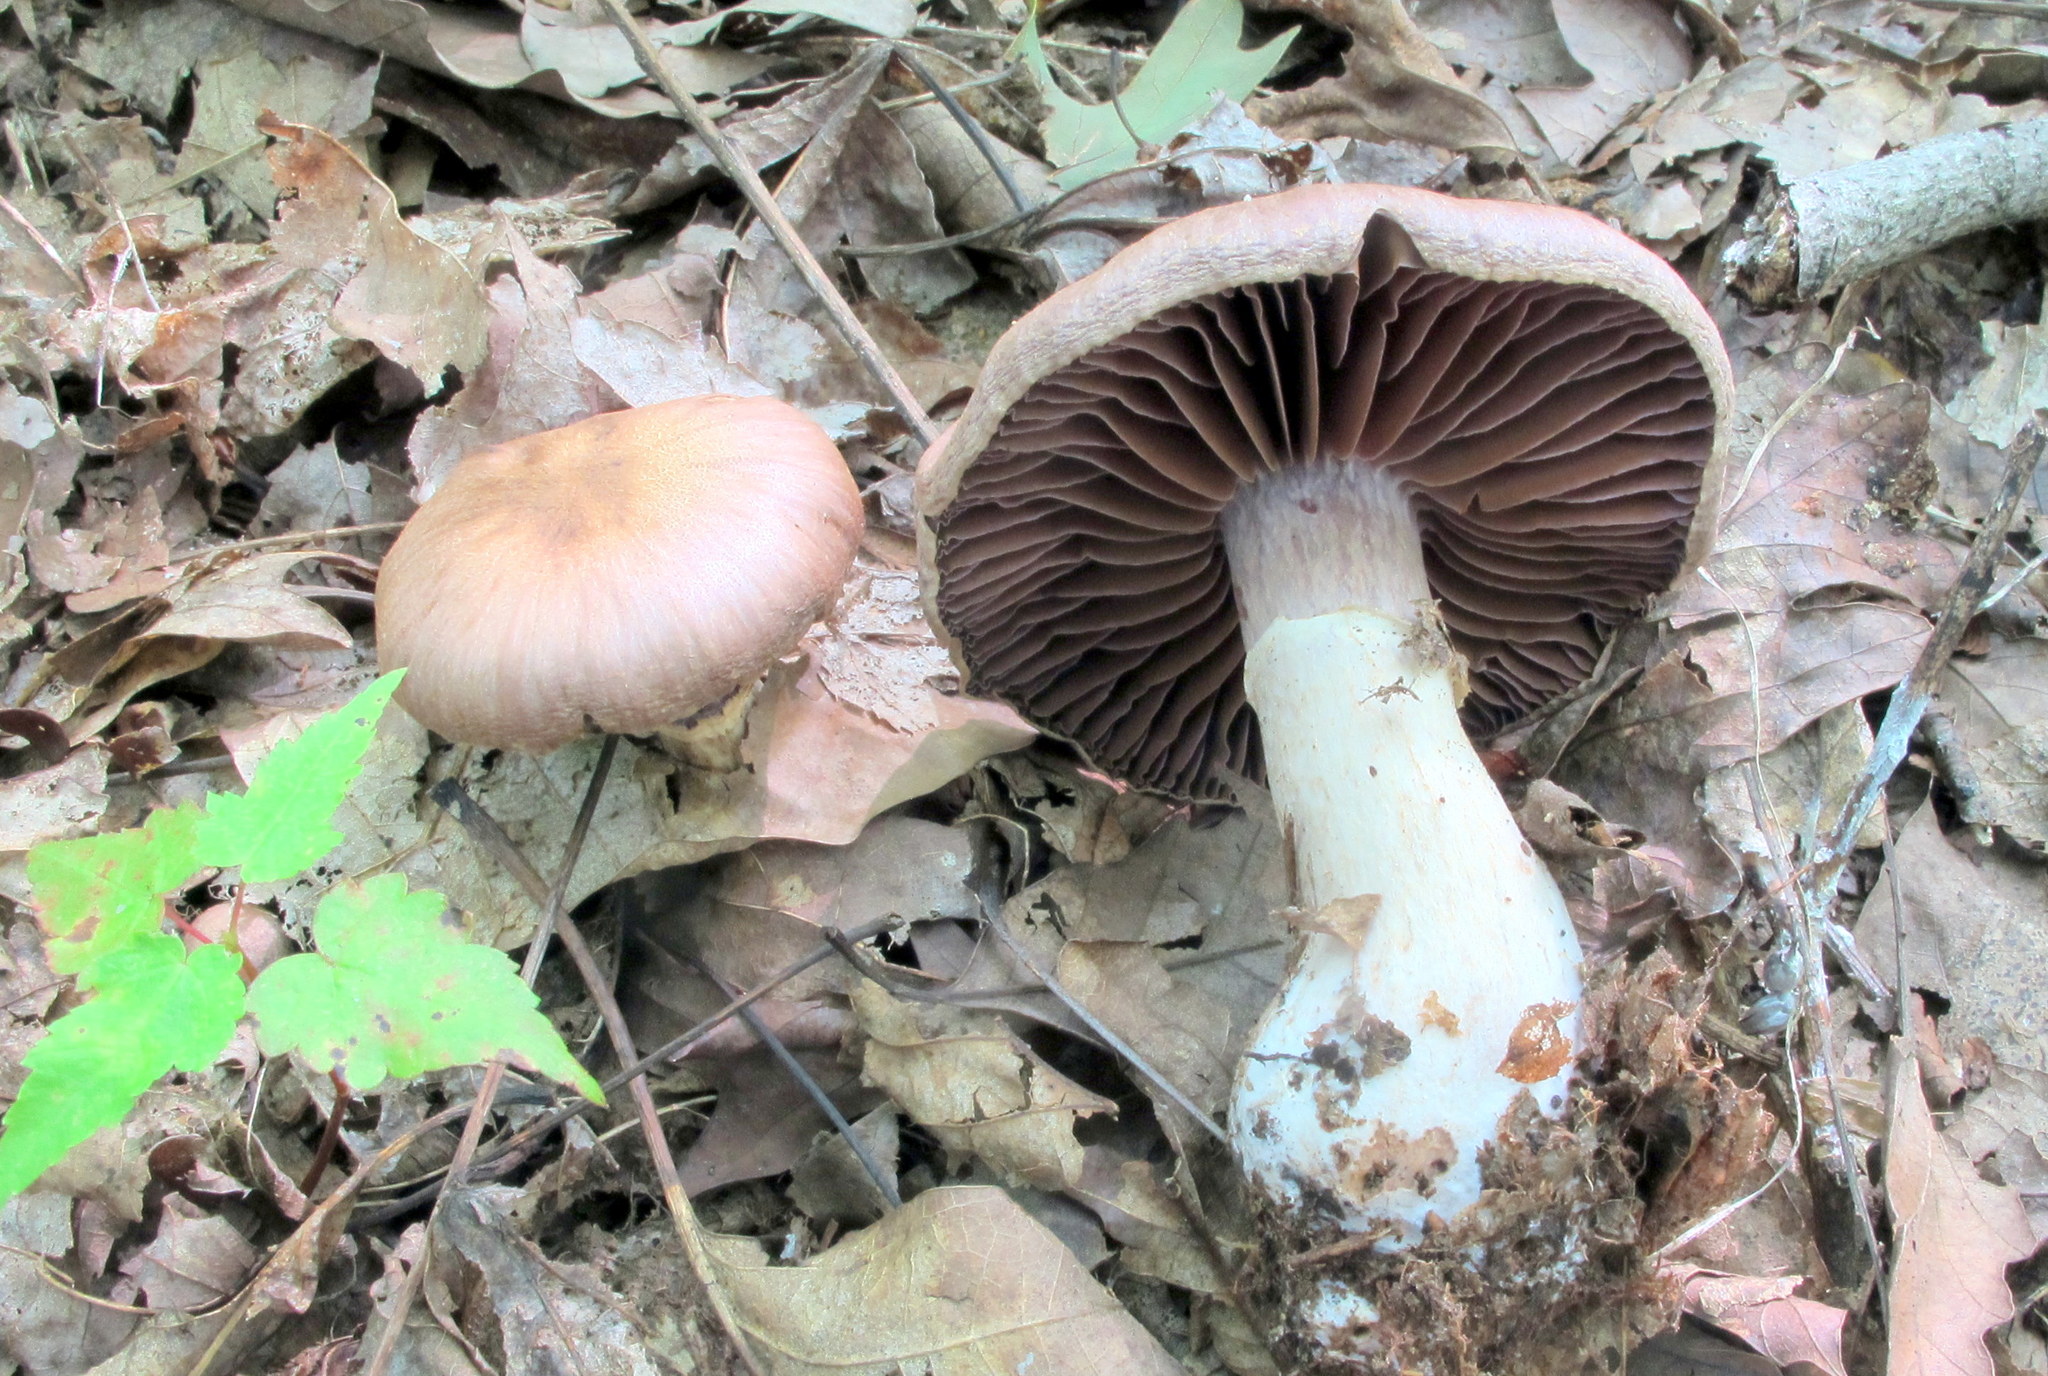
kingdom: Fungi
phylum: Basidiomycota
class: Agaricomycetes
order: Agaricales
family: Cortinariaceae
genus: Cortinarius
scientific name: Cortinarius torvus
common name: Stocking webcap
